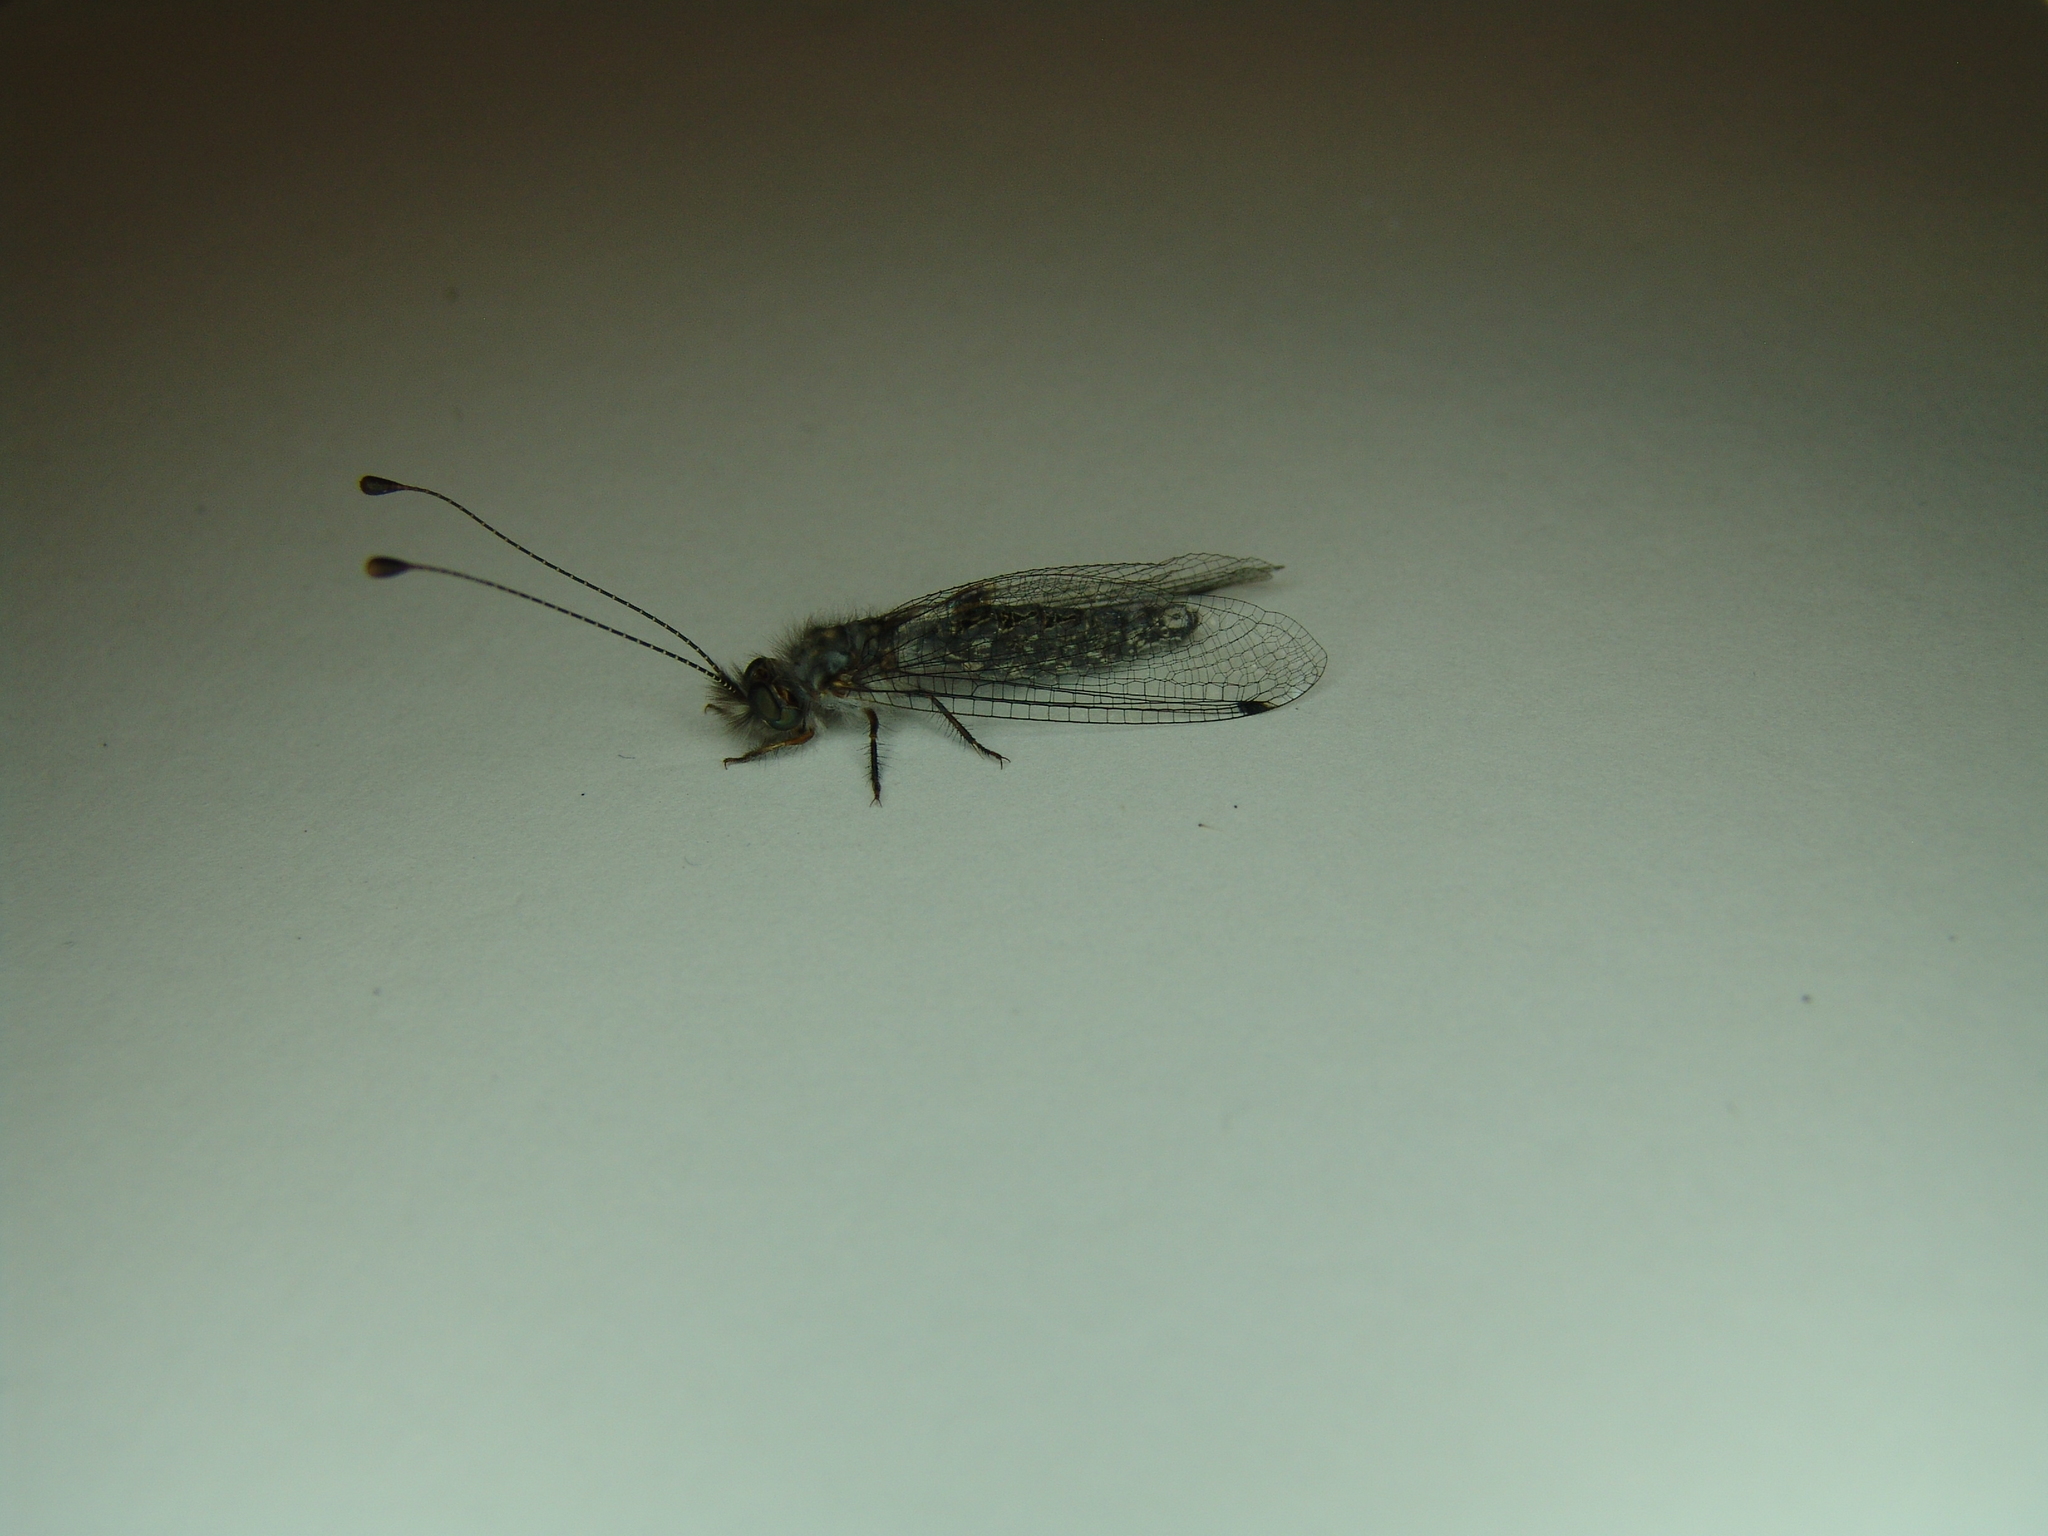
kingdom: Animalia
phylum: Arthropoda
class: Insecta
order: Neuroptera
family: Ascalaphidae
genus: Ululodes
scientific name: Ululodes mexicanus
